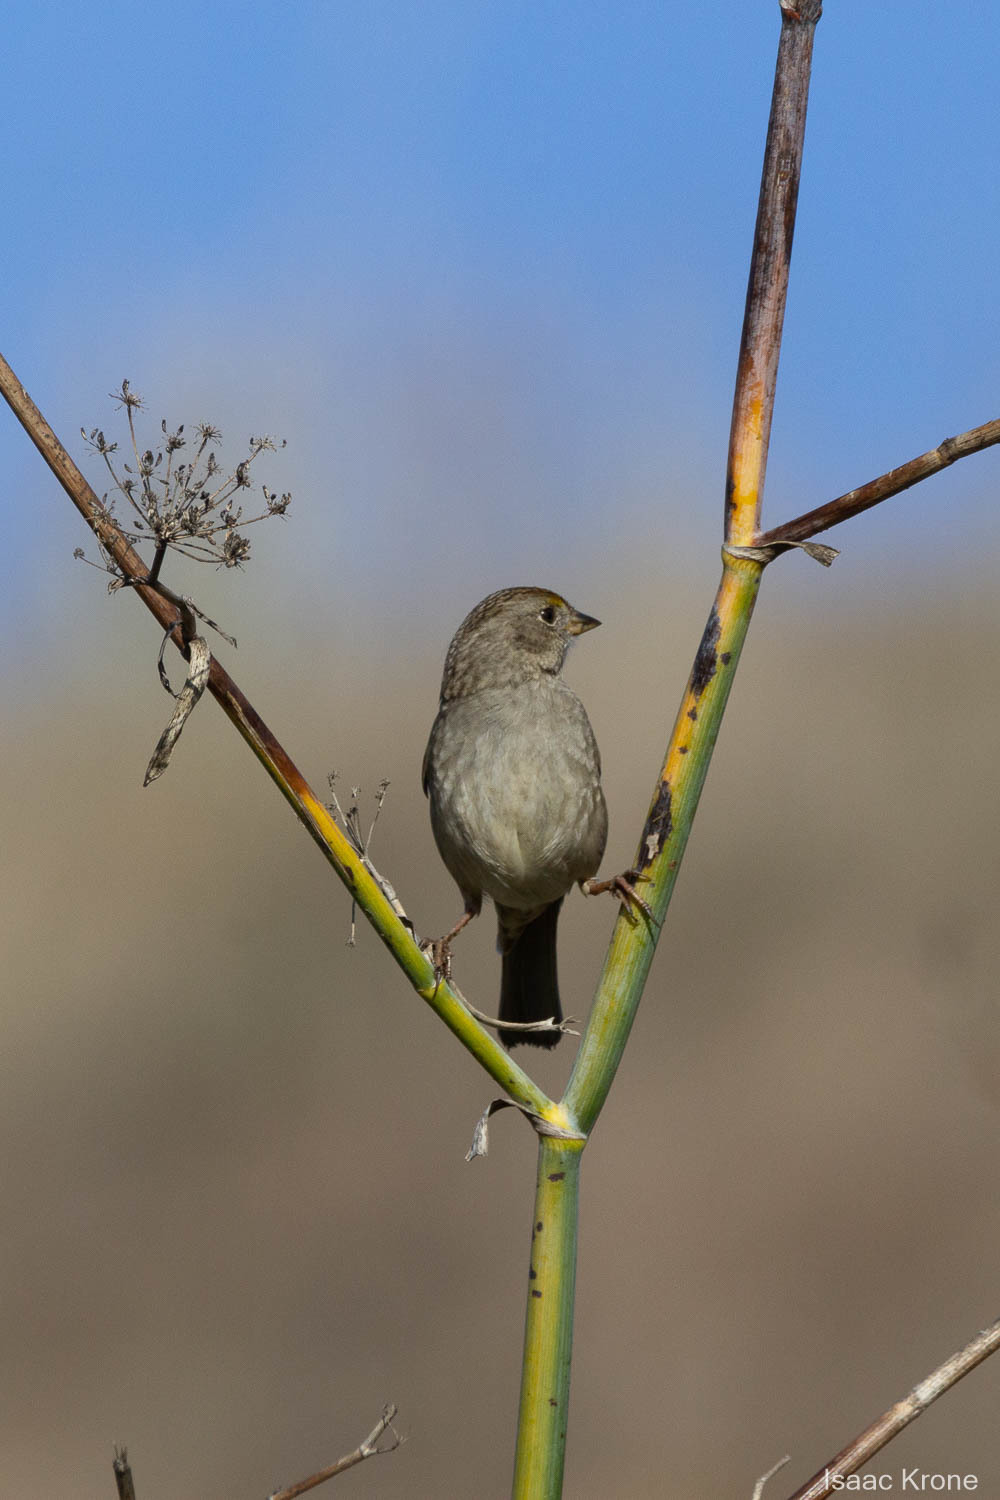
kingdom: Animalia
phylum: Chordata
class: Aves
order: Passeriformes
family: Passerellidae
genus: Zonotrichia
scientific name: Zonotrichia atricapilla
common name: Golden-crowned sparrow
